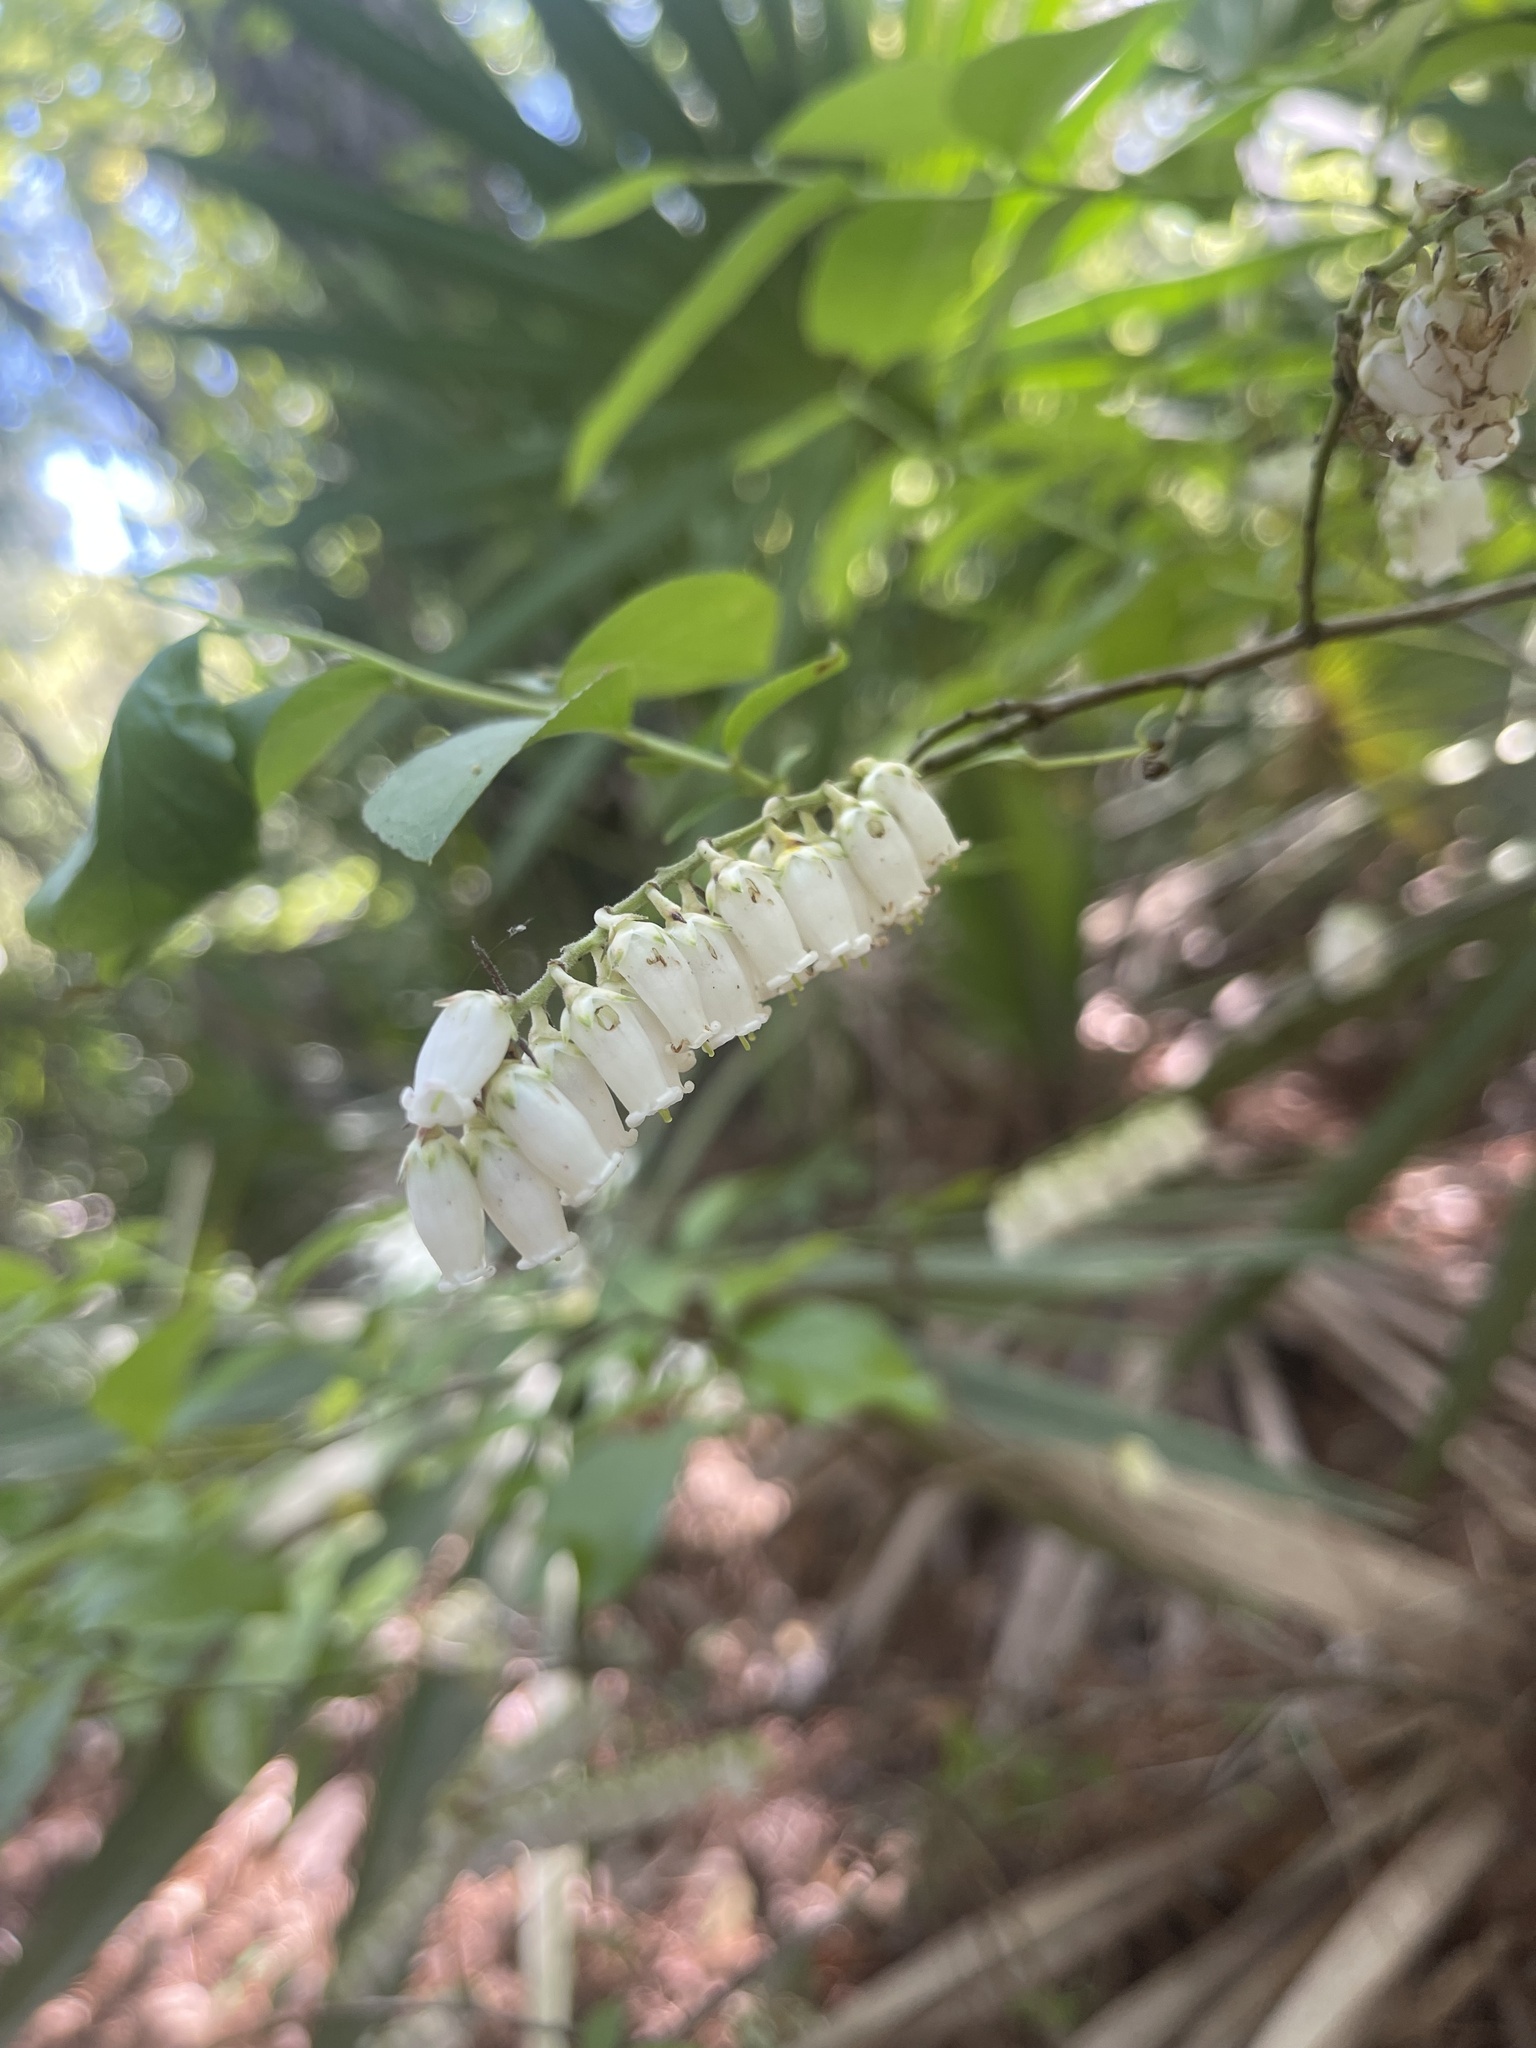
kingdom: Plantae
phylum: Tracheophyta
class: Magnoliopsida
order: Ericales
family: Ericaceae
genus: Eubotrys
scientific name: Eubotrys racemosa
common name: Fetterbush
